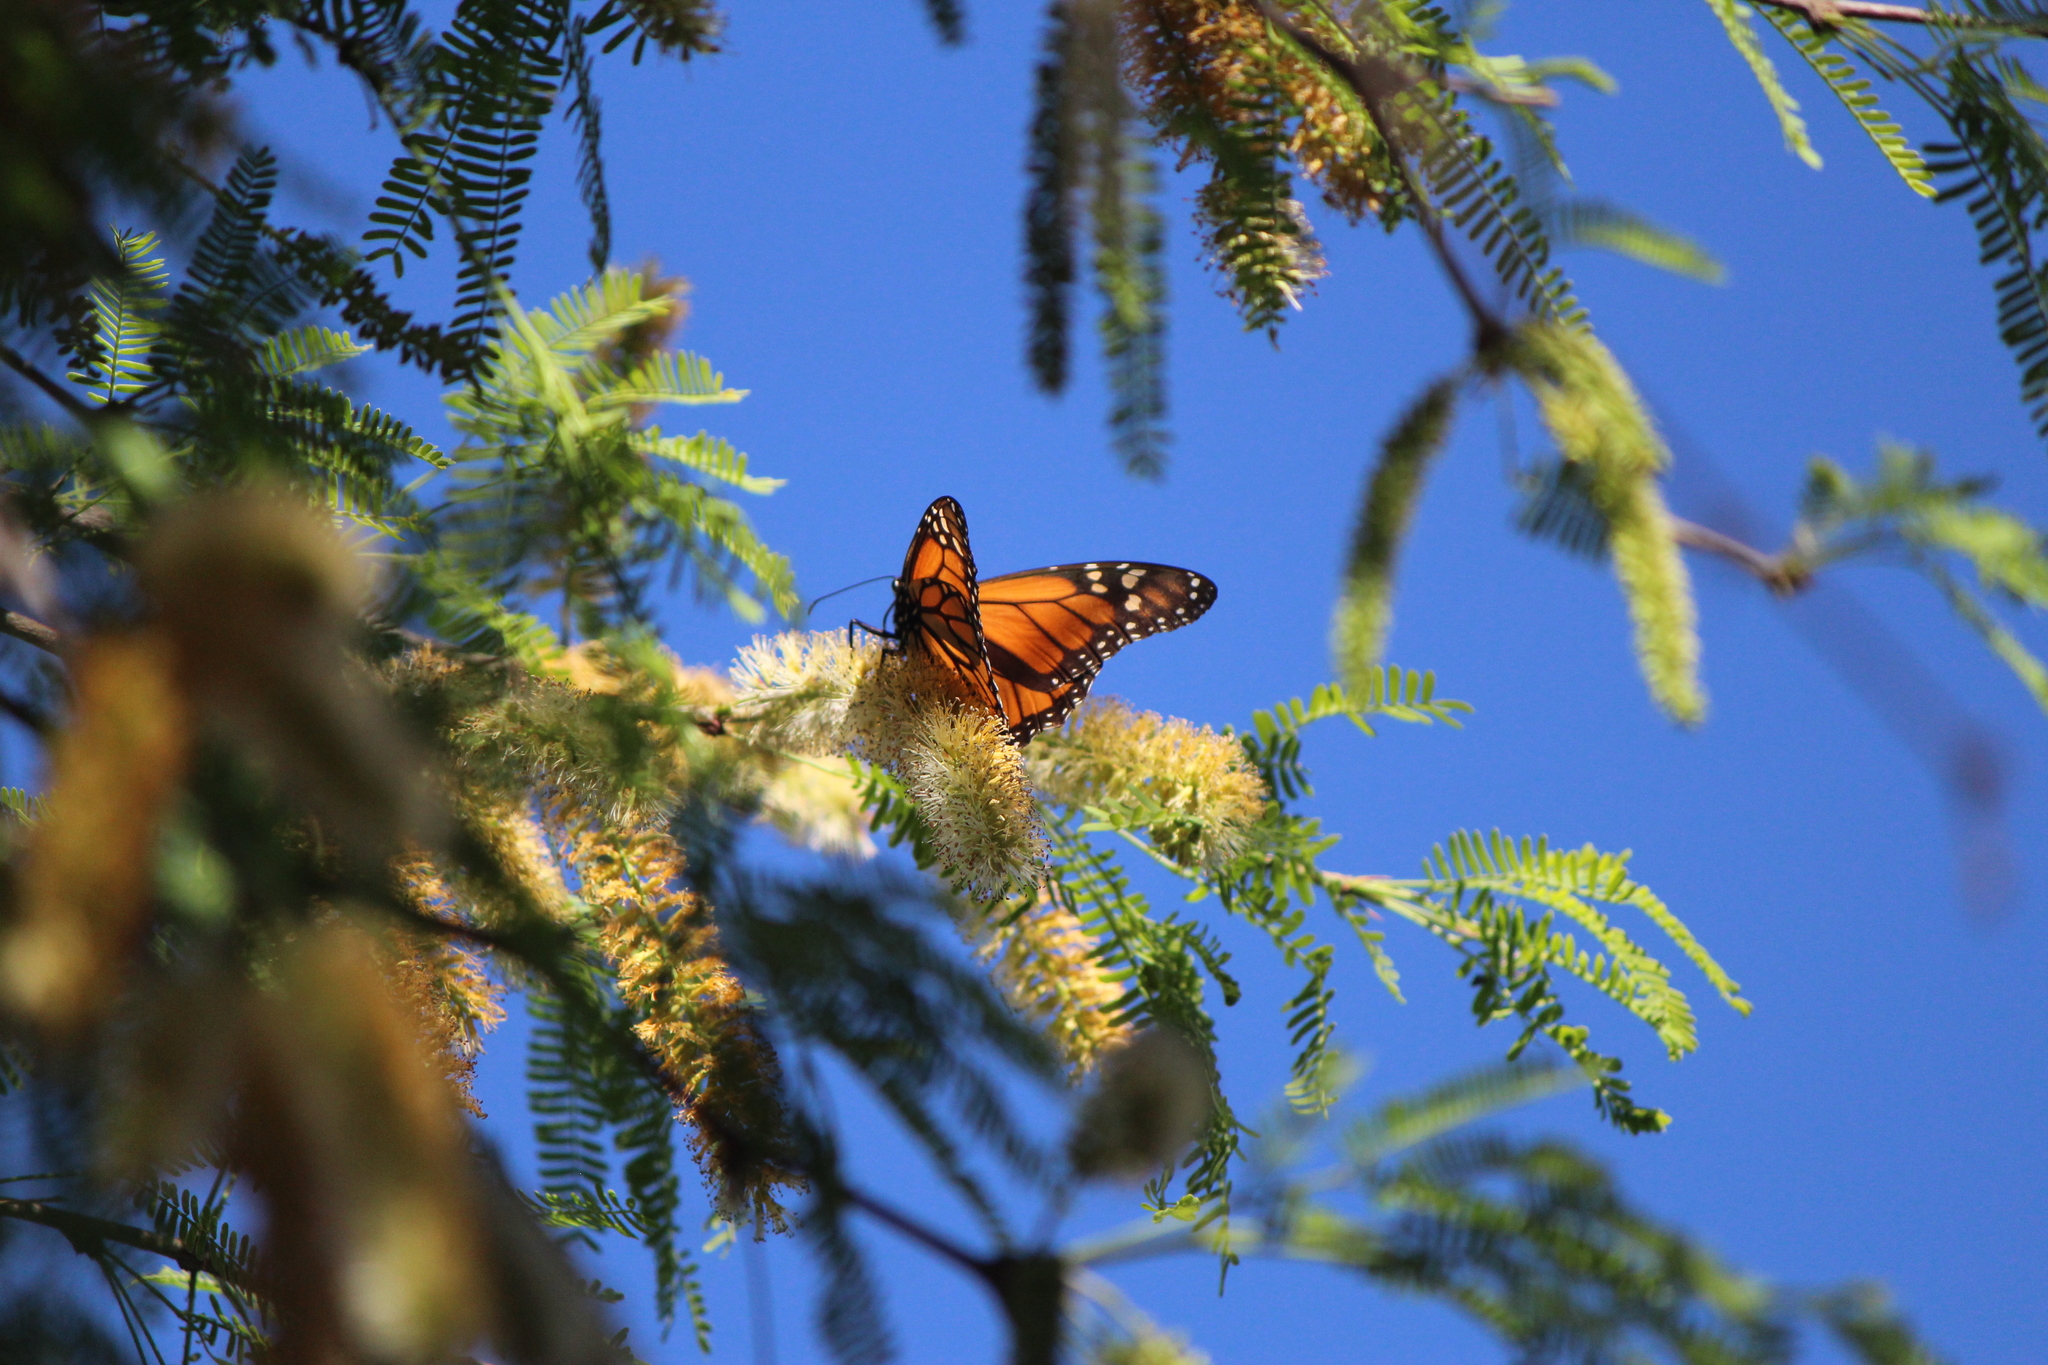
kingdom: Animalia
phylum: Arthropoda
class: Insecta
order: Lepidoptera
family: Nymphalidae
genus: Danaus
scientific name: Danaus plexippus
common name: Monarch
